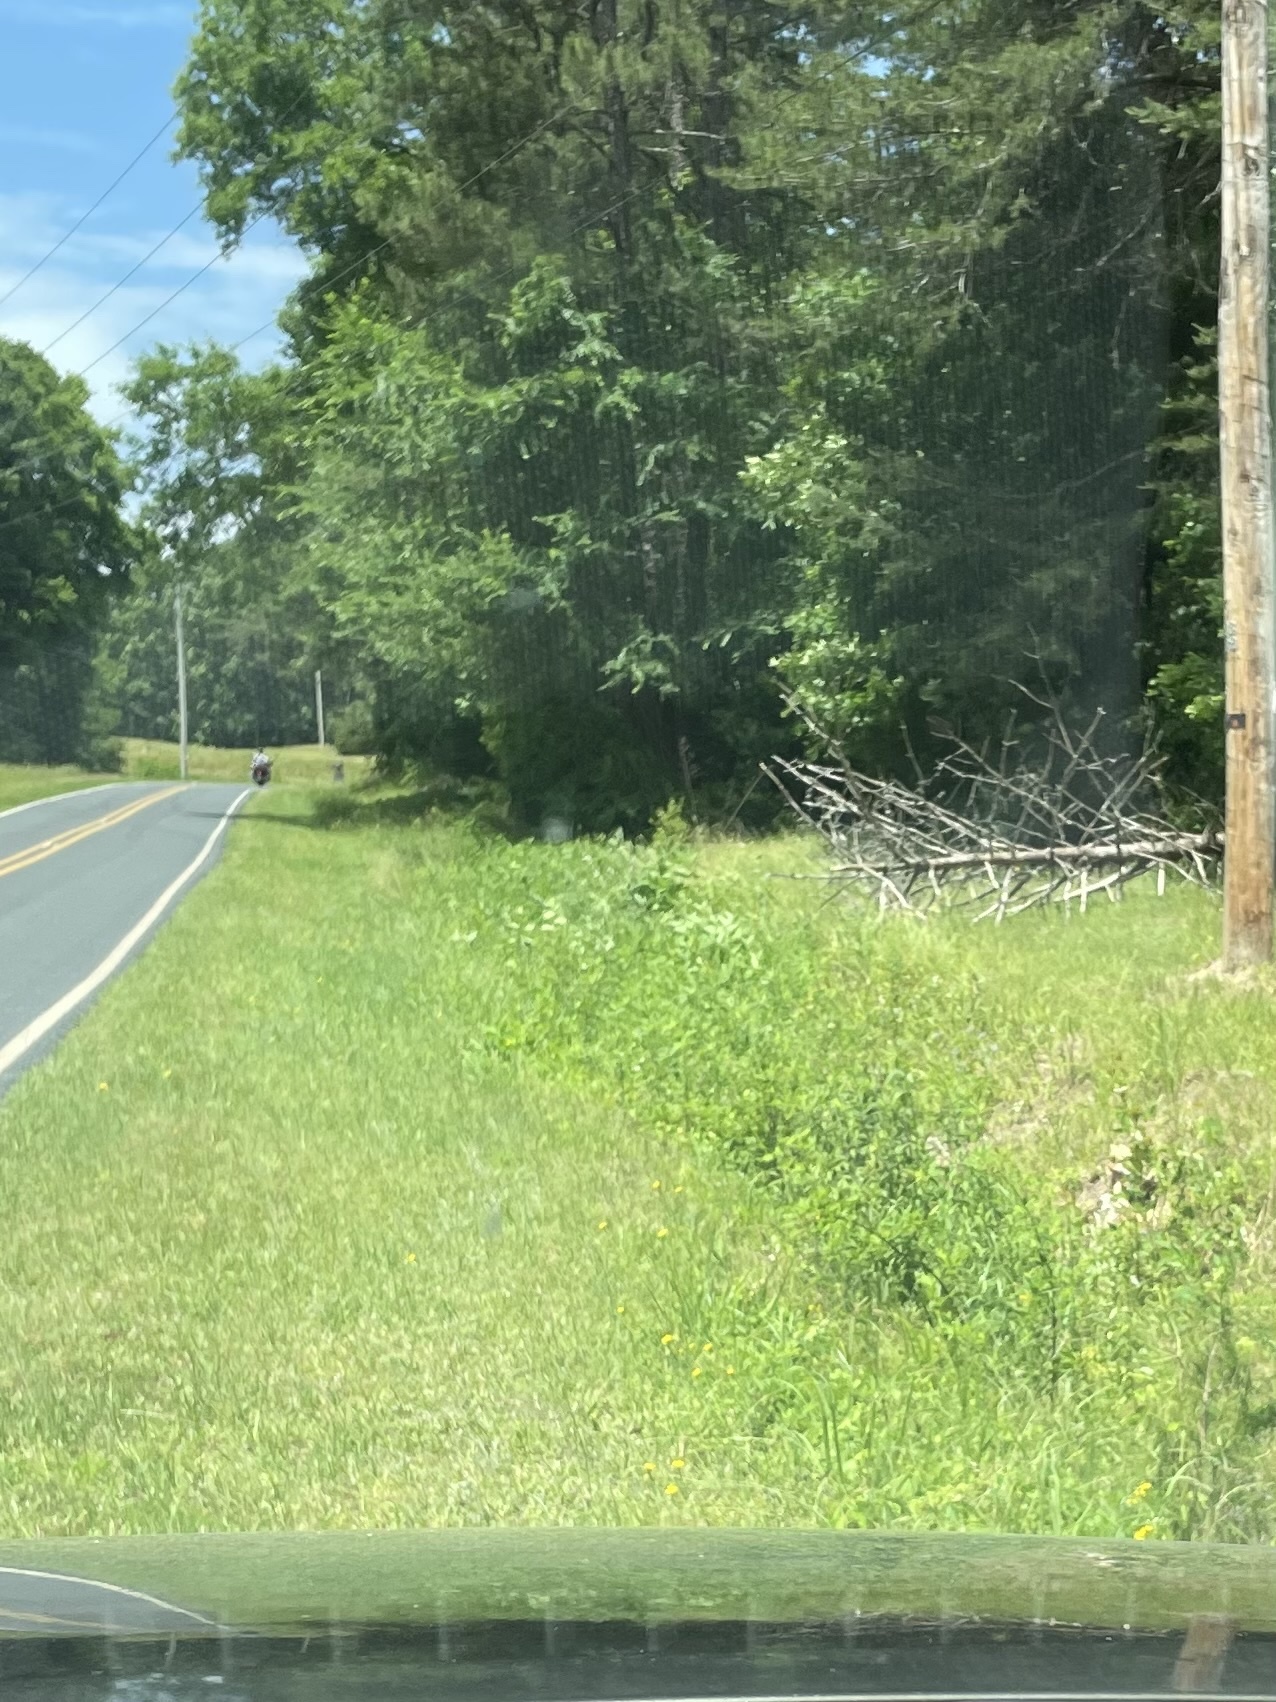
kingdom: Plantae
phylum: Tracheophyta
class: Magnoliopsida
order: Fabales
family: Fabaceae
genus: Baptisia
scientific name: Baptisia alba
